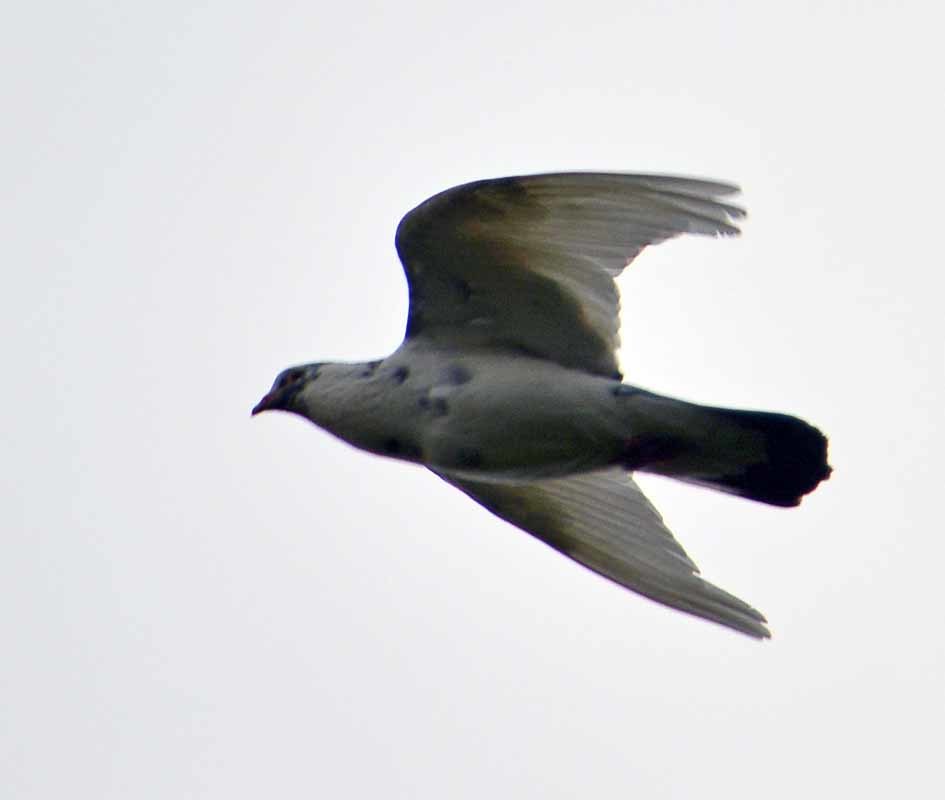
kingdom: Animalia
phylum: Chordata
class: Aves
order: Columbiformes
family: Columbidae
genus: Columba
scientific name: Columba livia
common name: Rock pigeon
